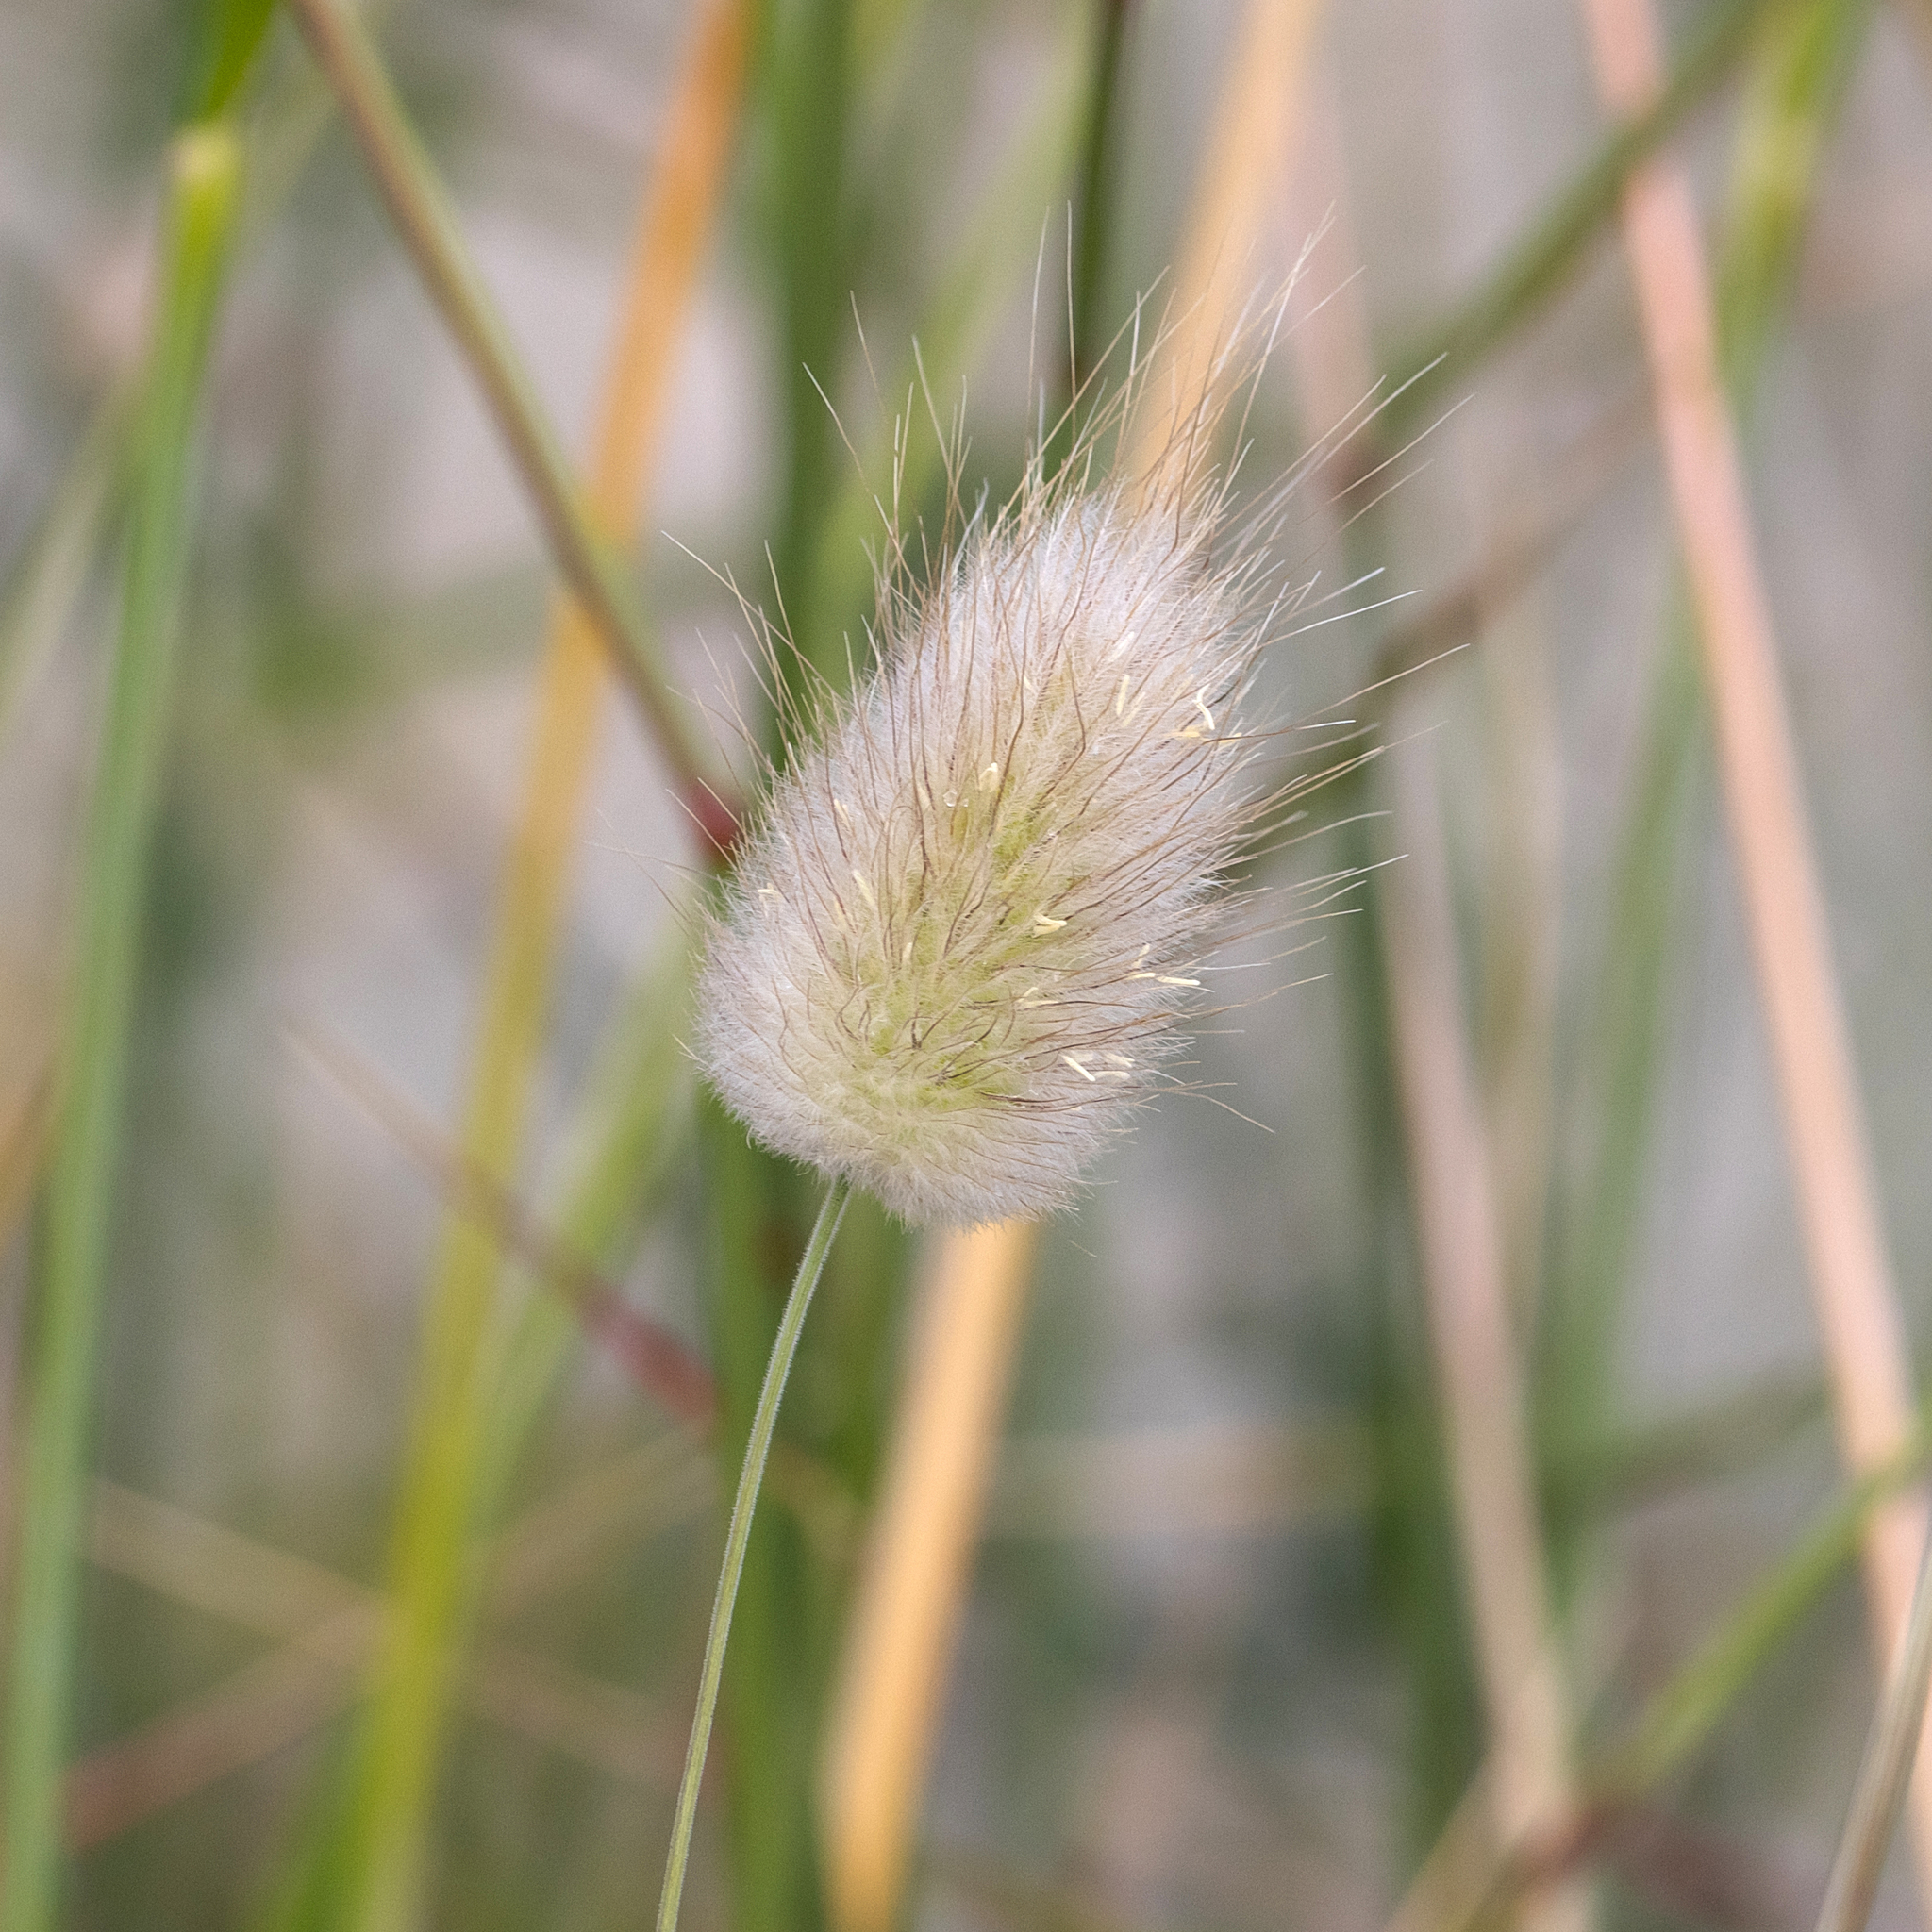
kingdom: Plantae
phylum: Tracheophyta
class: Liliopsida
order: Poales
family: Poaceae
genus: Lagurus
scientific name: Lagurus ovatus
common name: Hare's-tail
